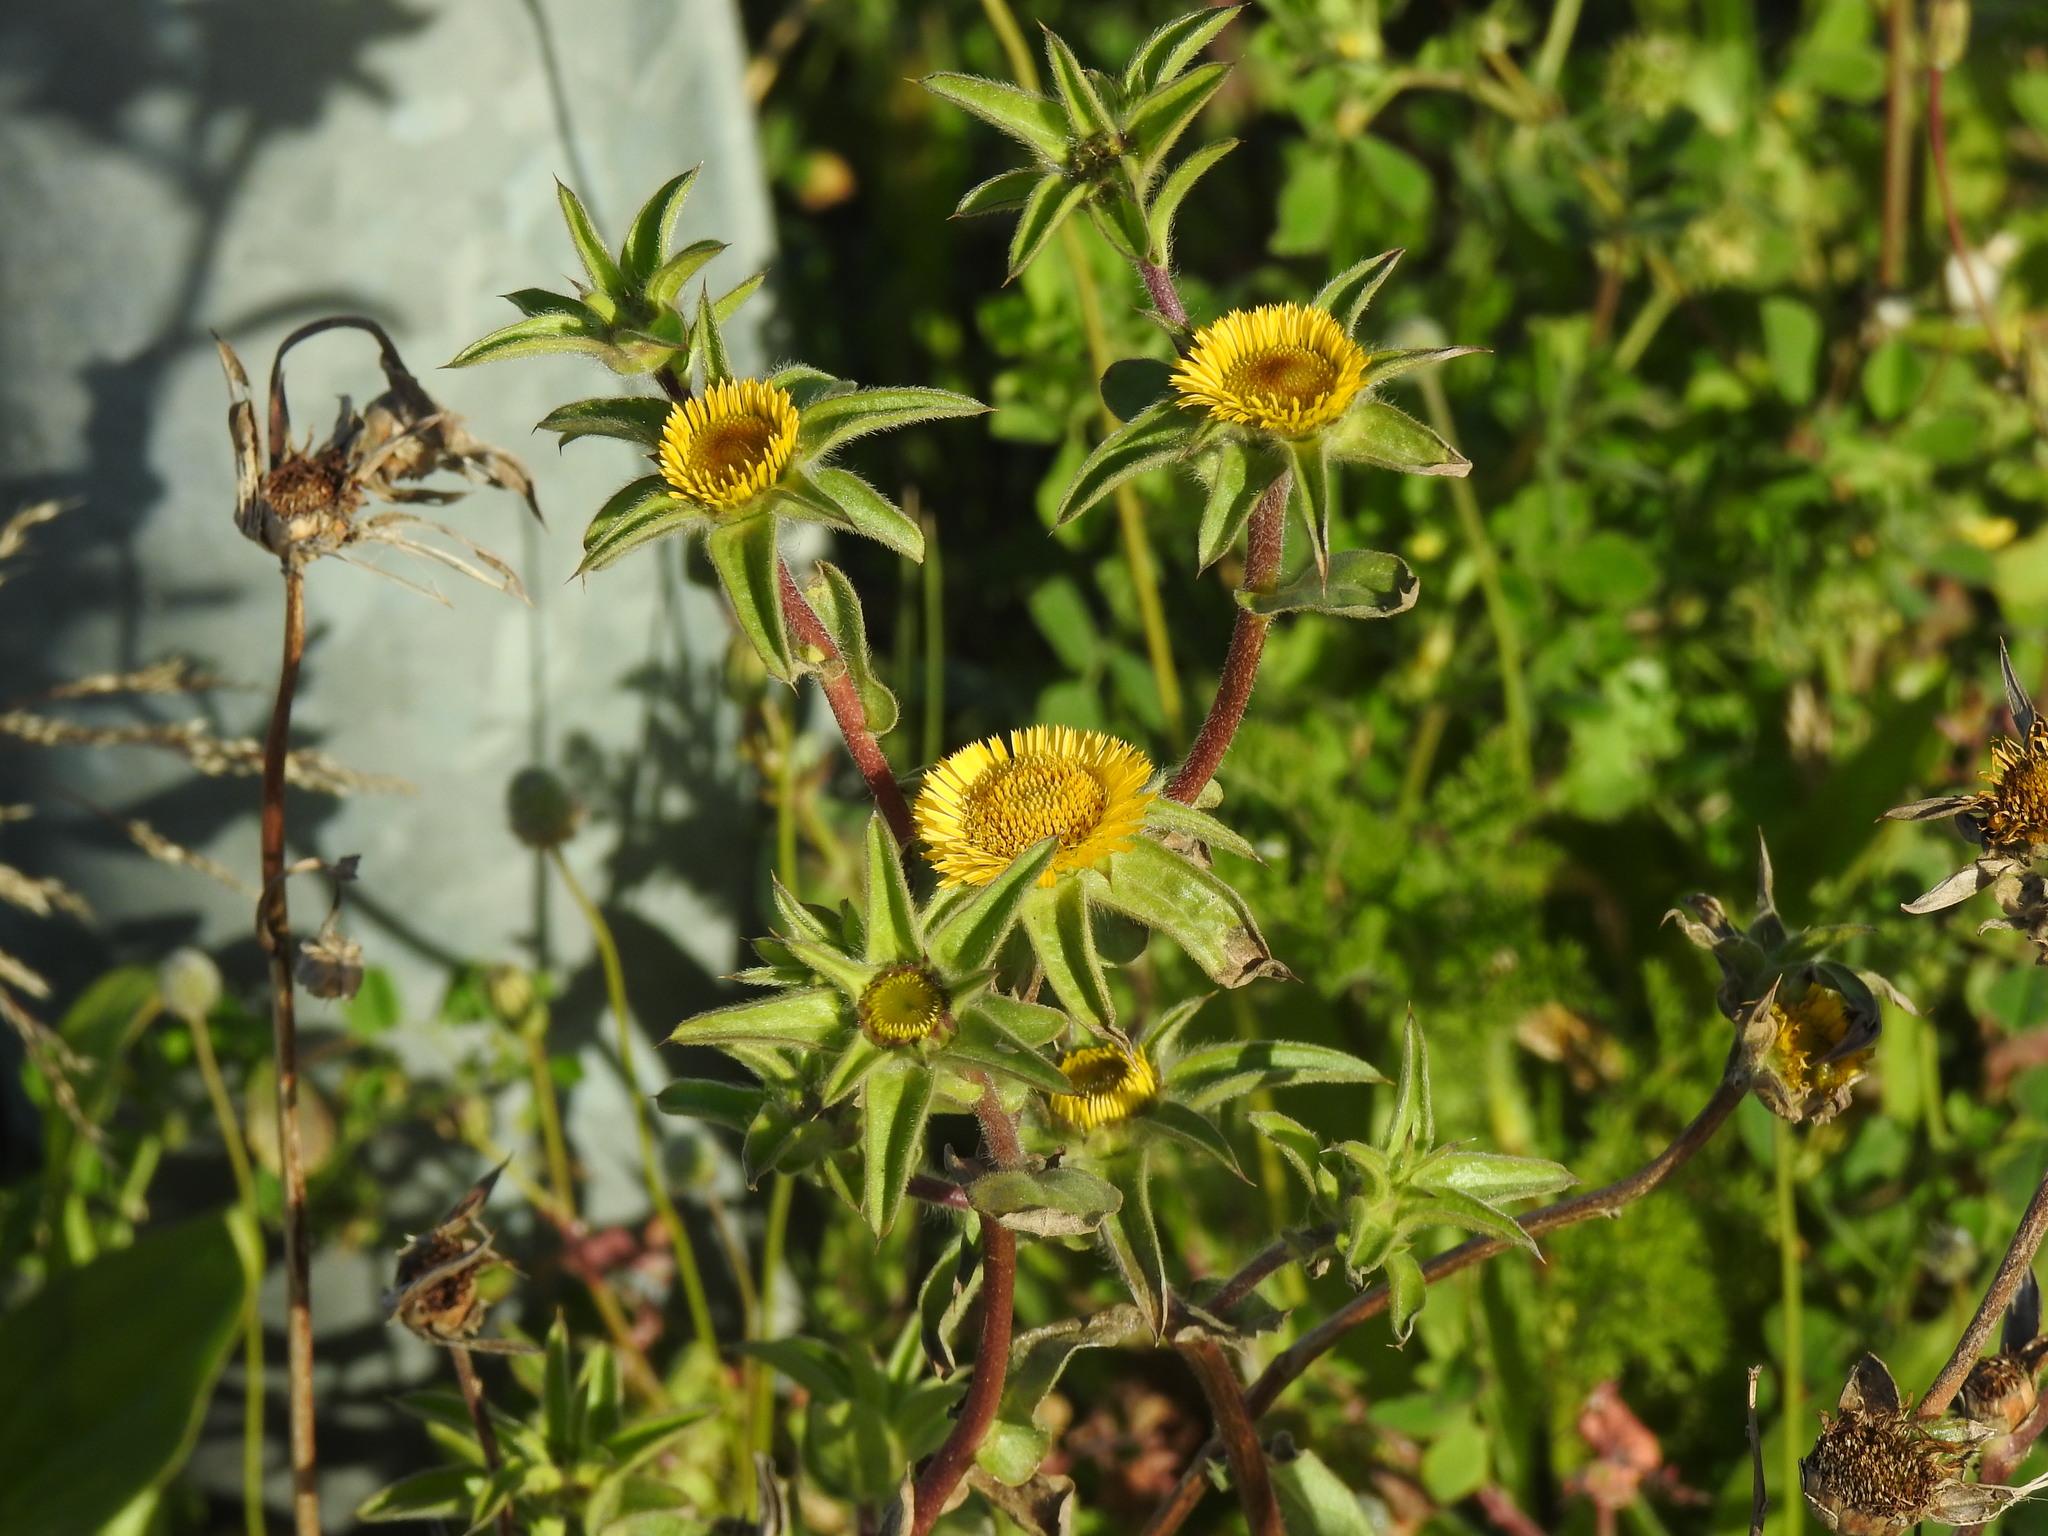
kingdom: Plantae
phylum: Tracheophyta
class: Magnoliopsida
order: Asterales
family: Asteraceae
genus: Pallenis
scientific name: Pallenis spinosa
